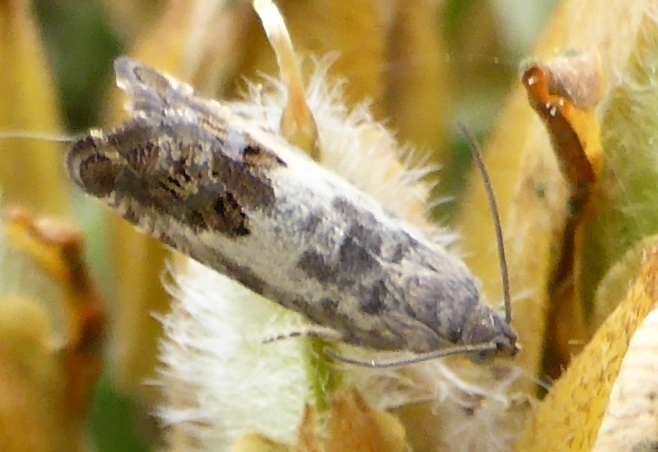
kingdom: Animalia
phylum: Arthropoda
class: Insecta
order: Lepidoptera
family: Tortricidae
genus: Pammene
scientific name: Pammene fasciana
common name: Acorn piercer
